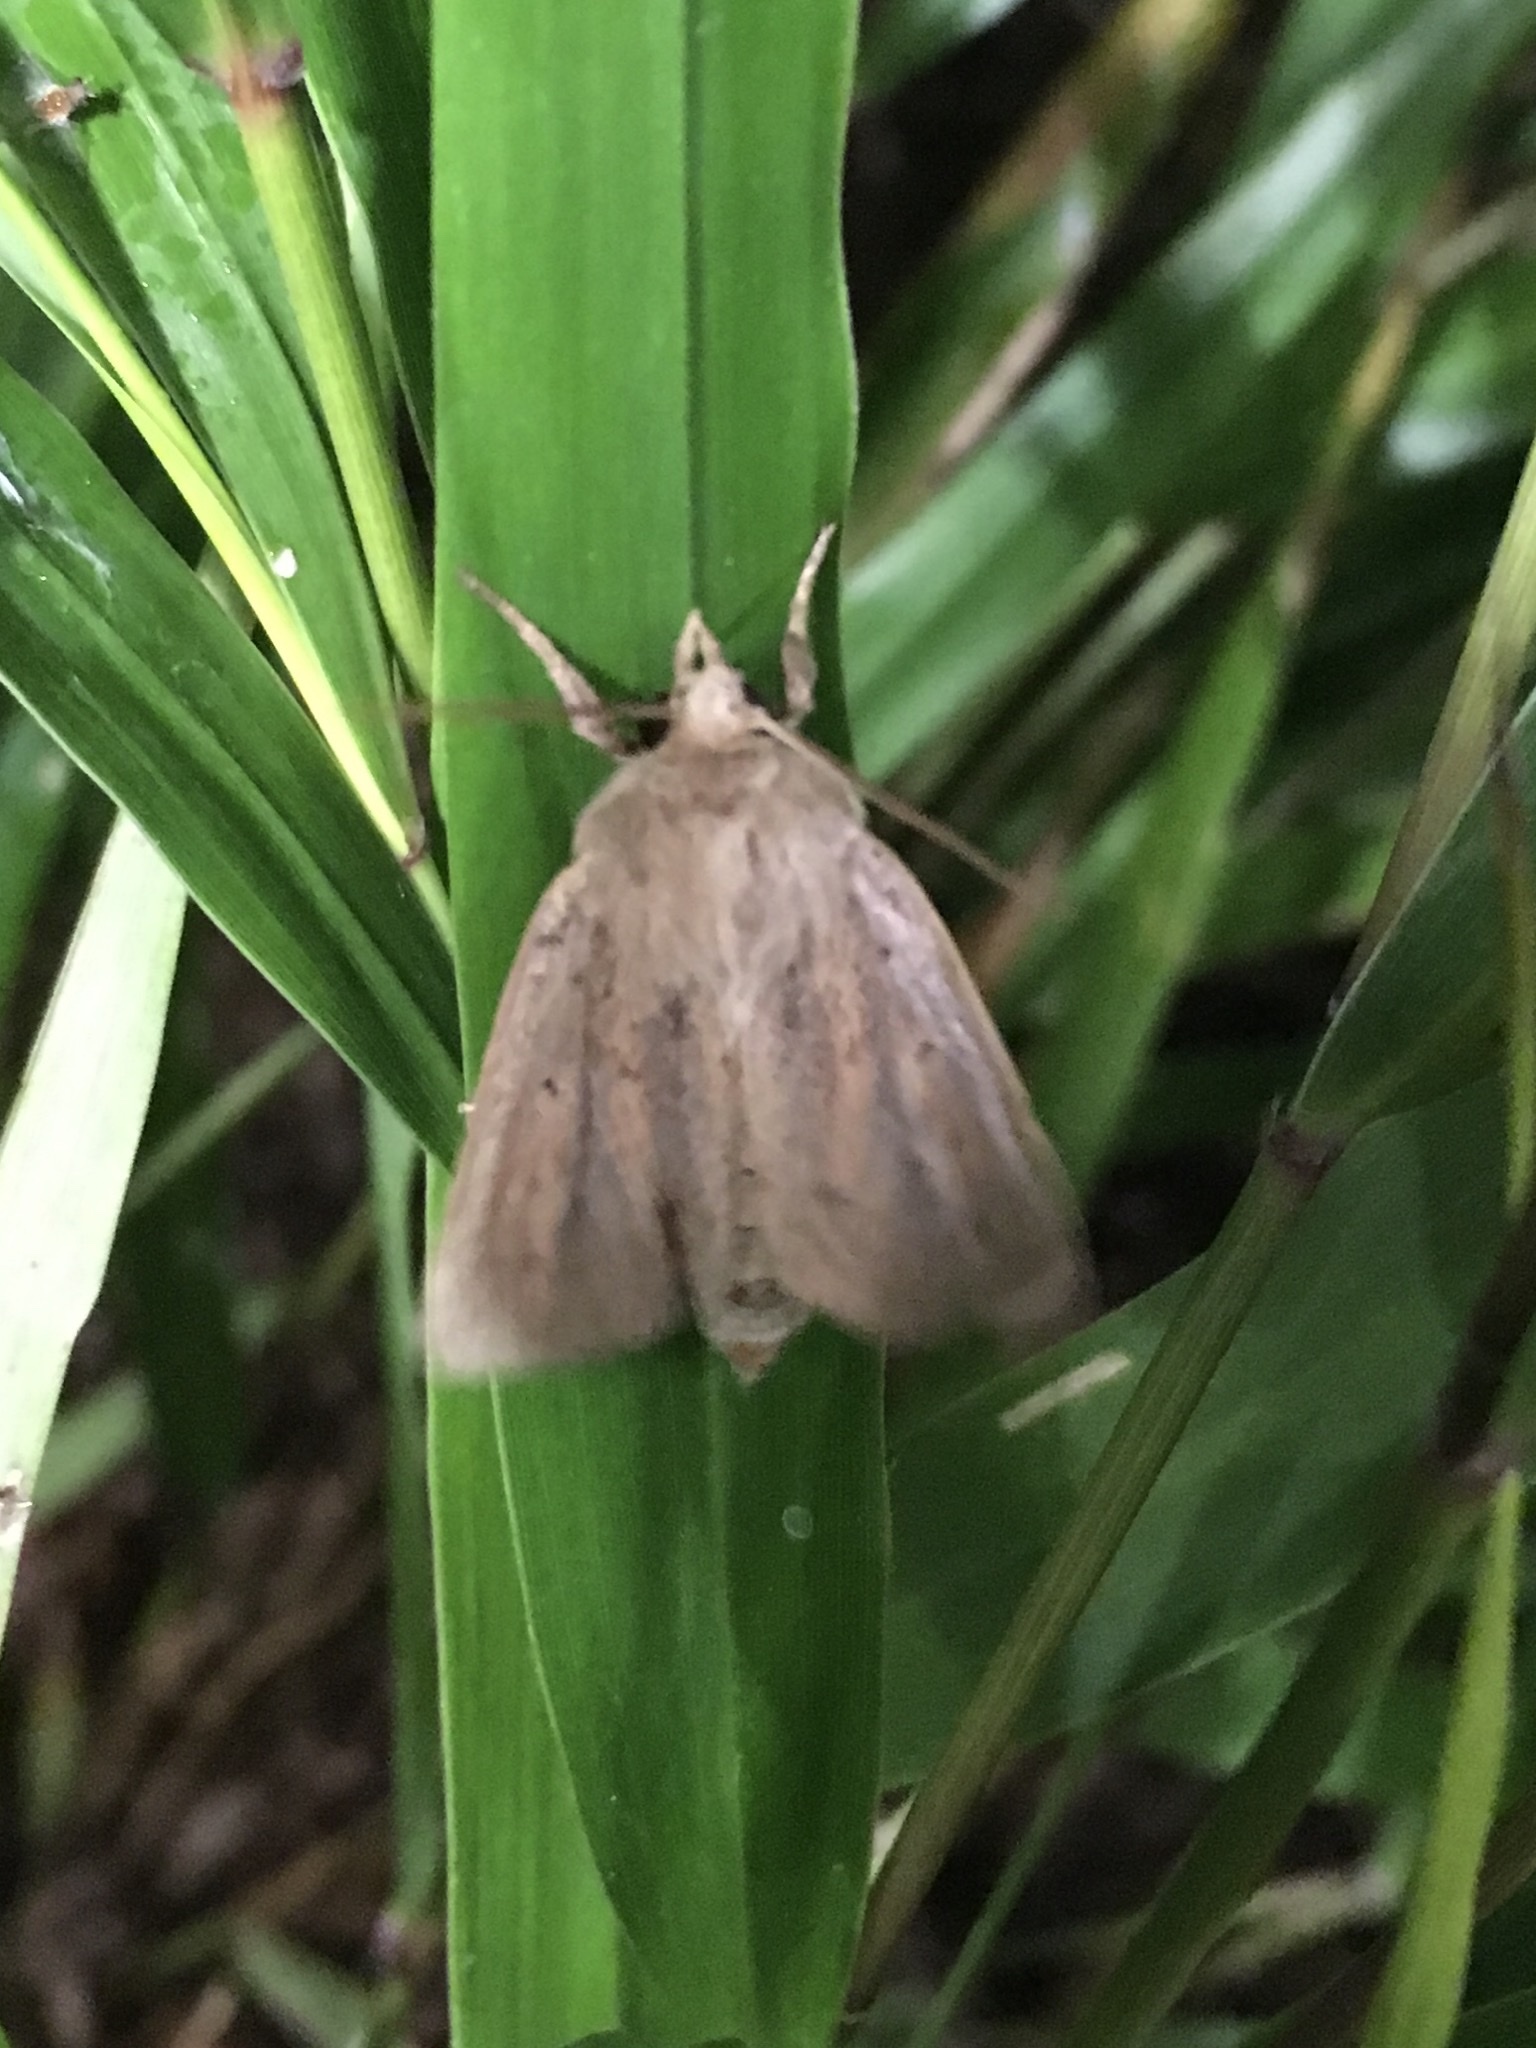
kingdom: Animalia
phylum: Arthropoda
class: Insecta
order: Lepidoptera
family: Noctuidae
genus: Globia
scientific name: Globia oblonga
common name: Oblong sedge borer moth
